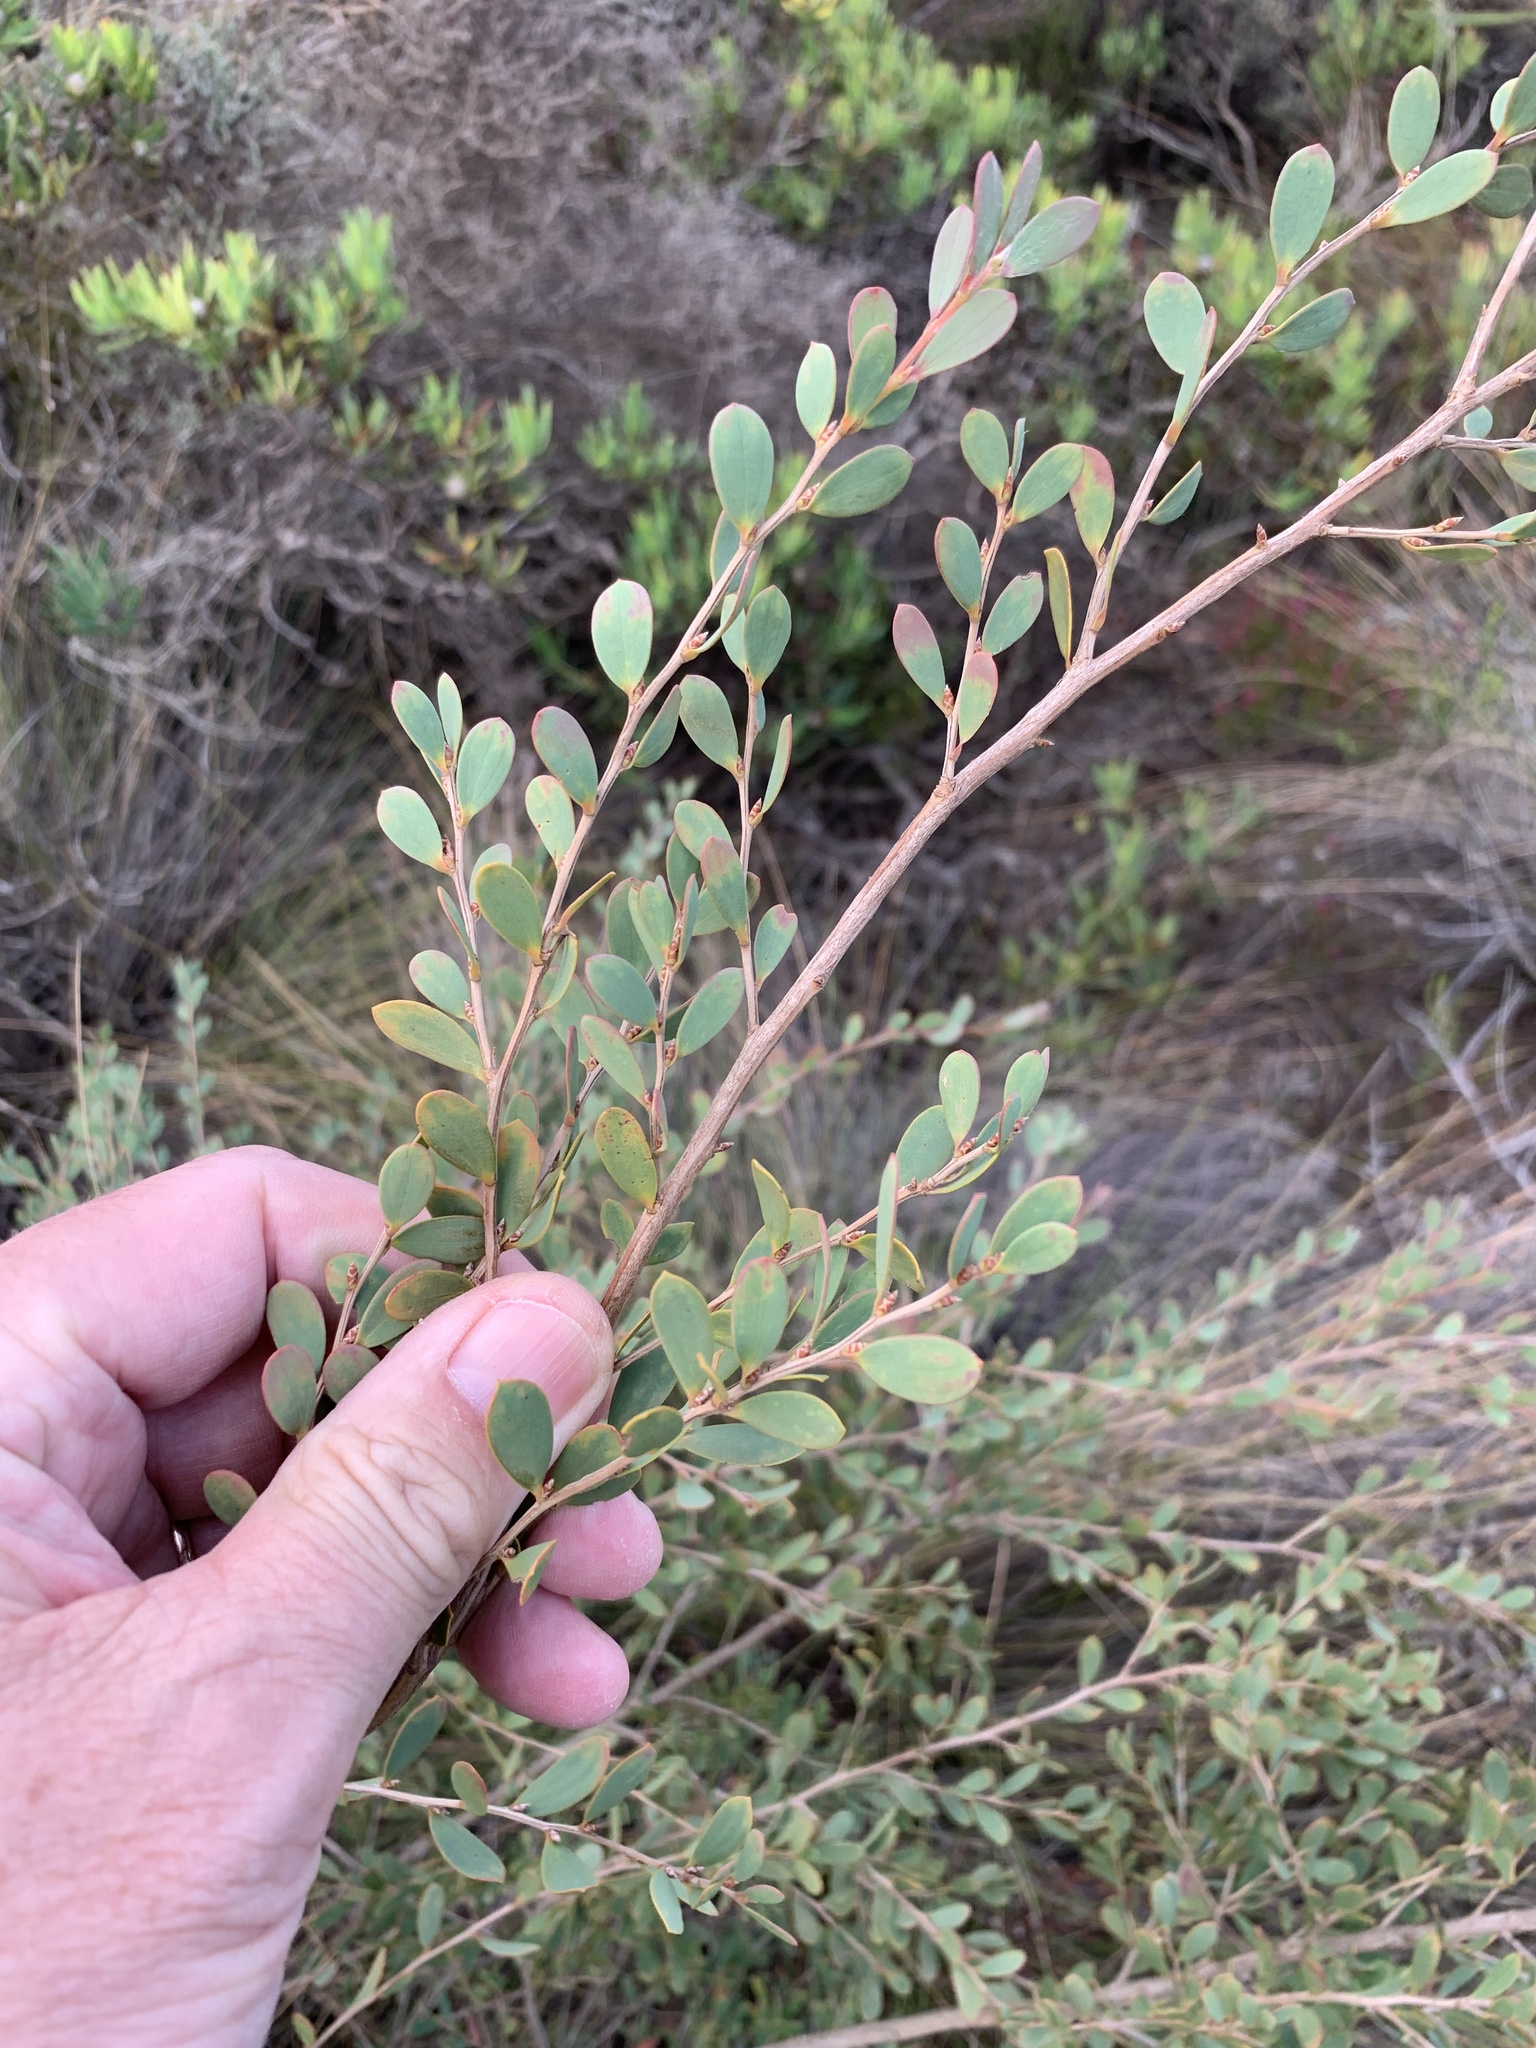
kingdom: Plantae
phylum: Tracheophyta
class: Magnoliopsida
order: Myrtales
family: Myrtaceae
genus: Leptospermum
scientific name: Leptospermum laevigatum
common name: Australian teatree
